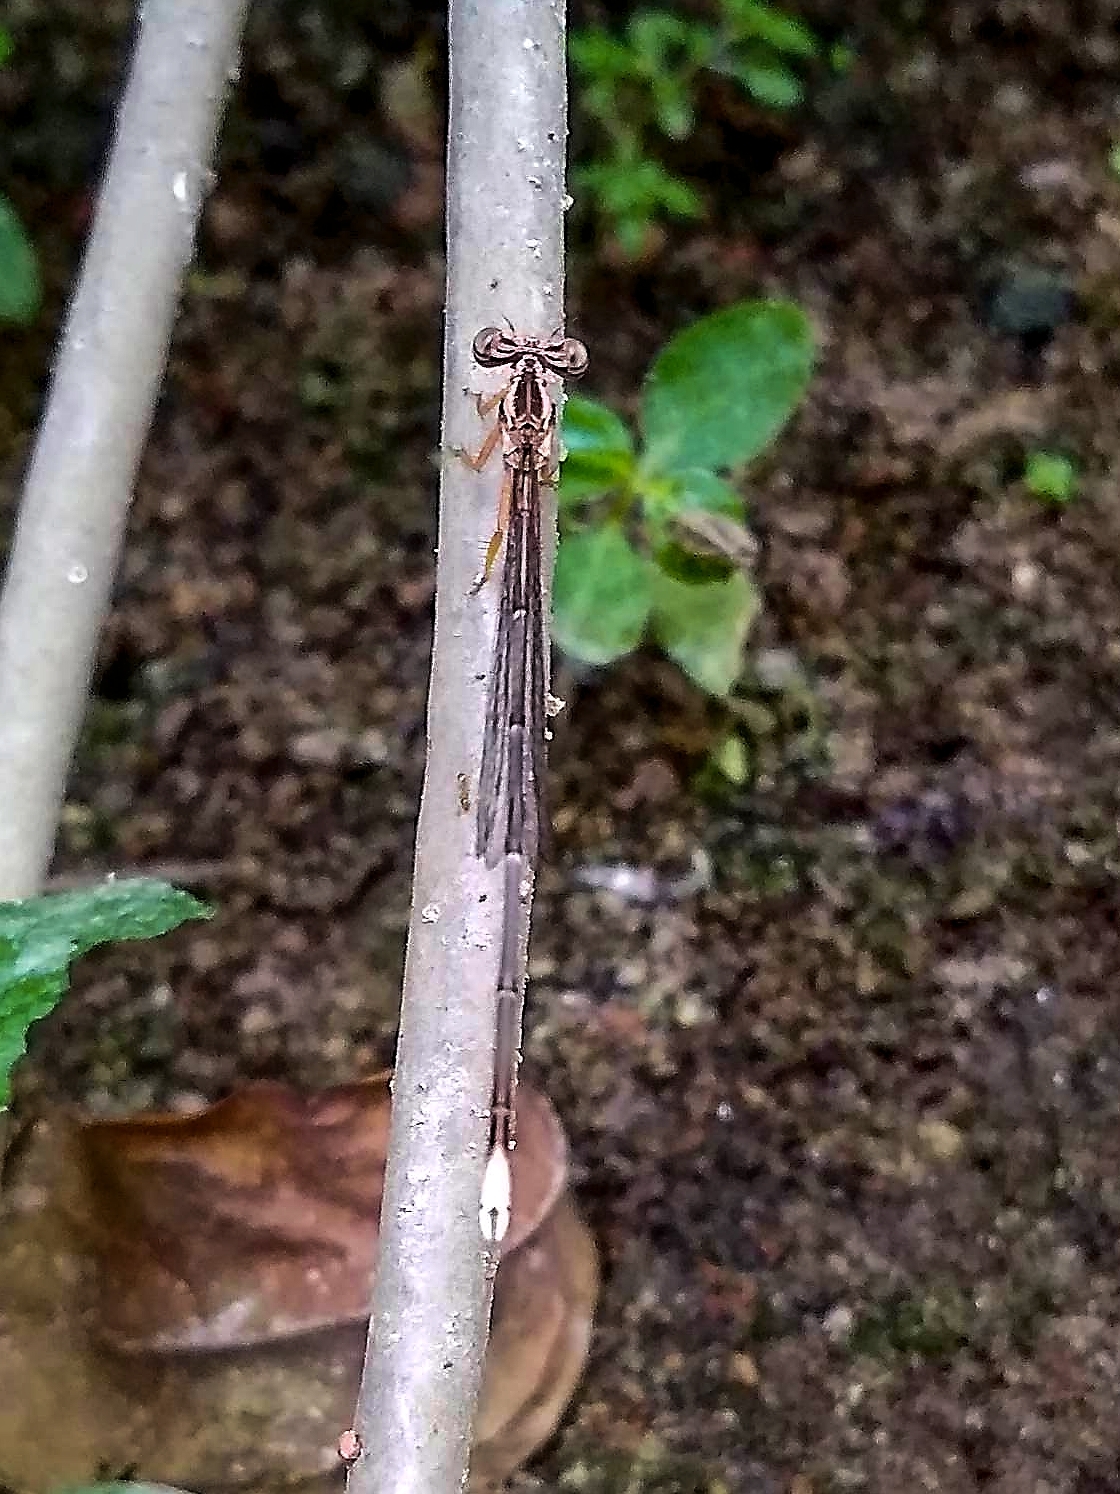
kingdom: Animalia
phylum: Arthropoda
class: Insecta
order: Odonata
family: Platycnemididae
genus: Copera
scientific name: Copera marginipes
